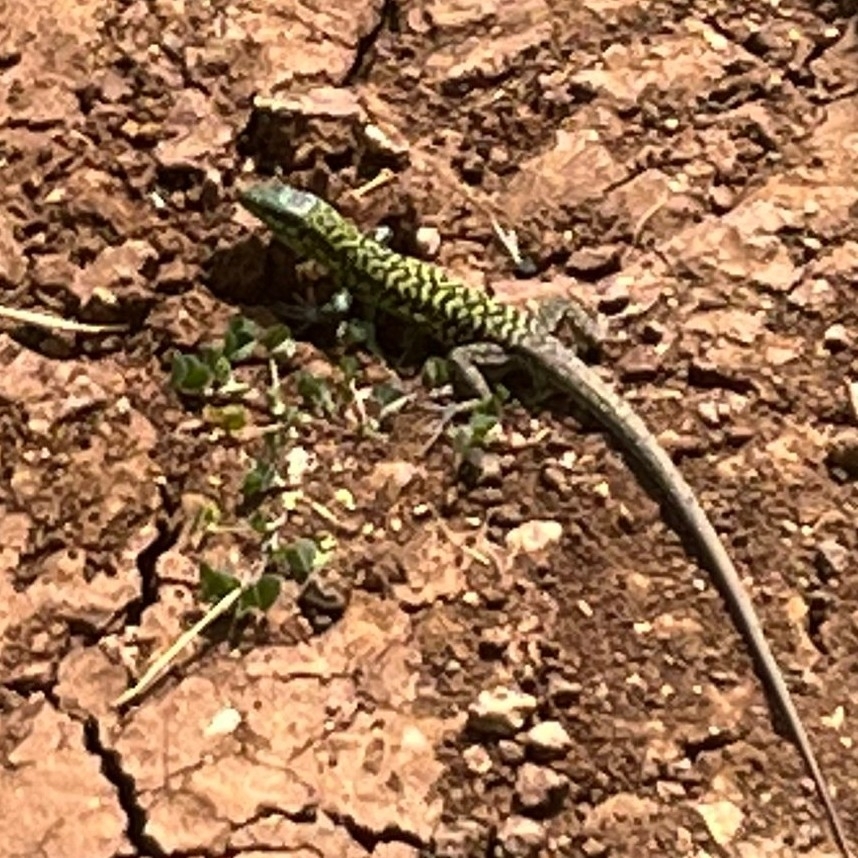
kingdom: Animalia
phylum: Chordata
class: Squamata
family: Lacertidae
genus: Podarcis
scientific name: Podarcis siculus
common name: Italian wall lizard
